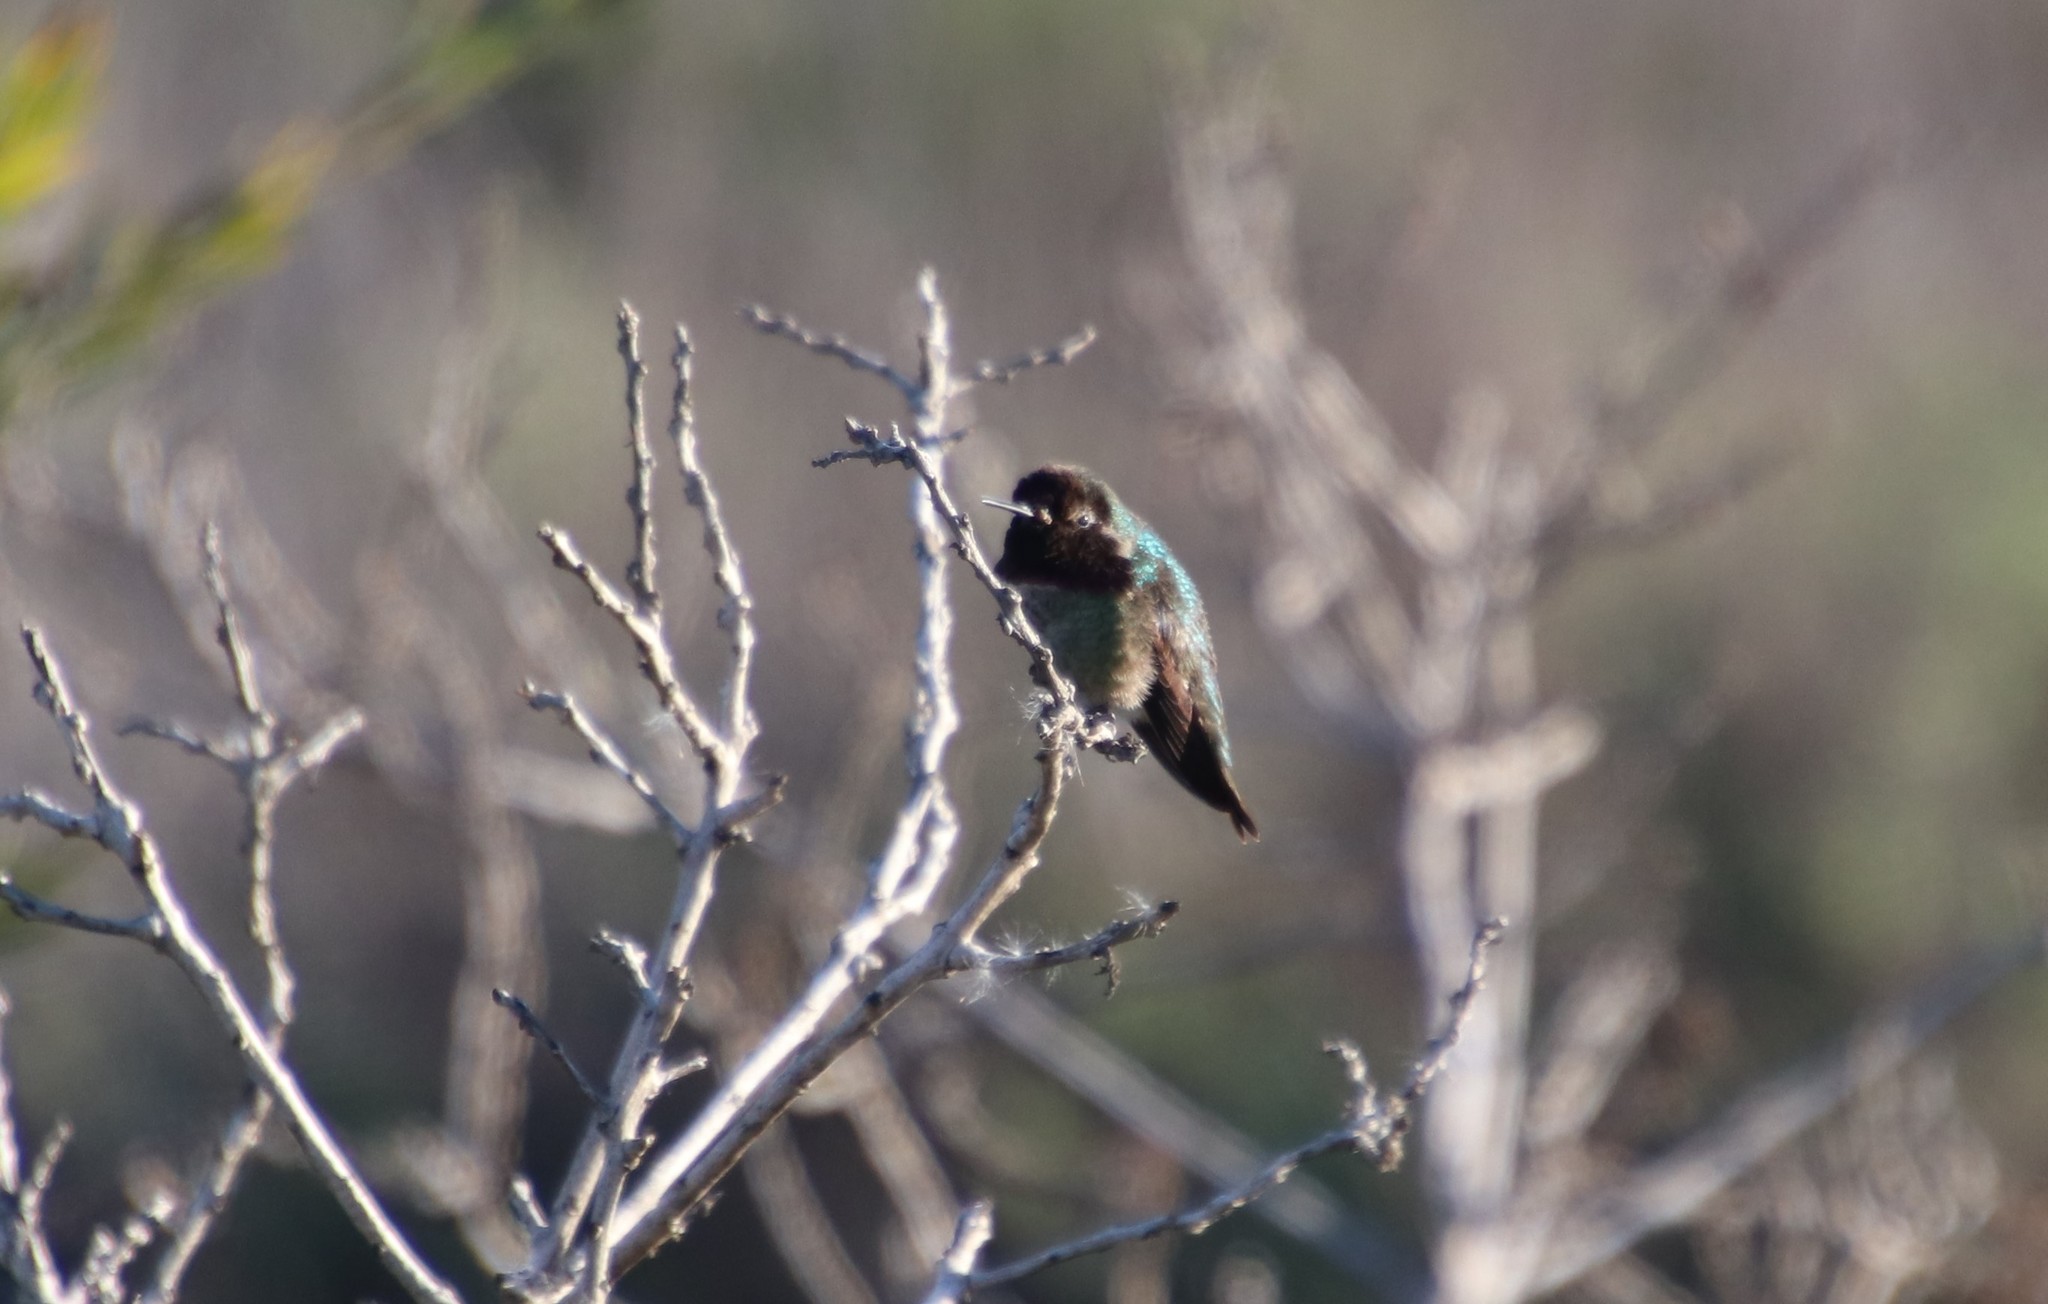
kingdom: Animalia
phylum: Chordata
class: Aves
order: Apodiformes
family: Trochilidae
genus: Calypte
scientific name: Calypte anna
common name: Anna's hummingbird
